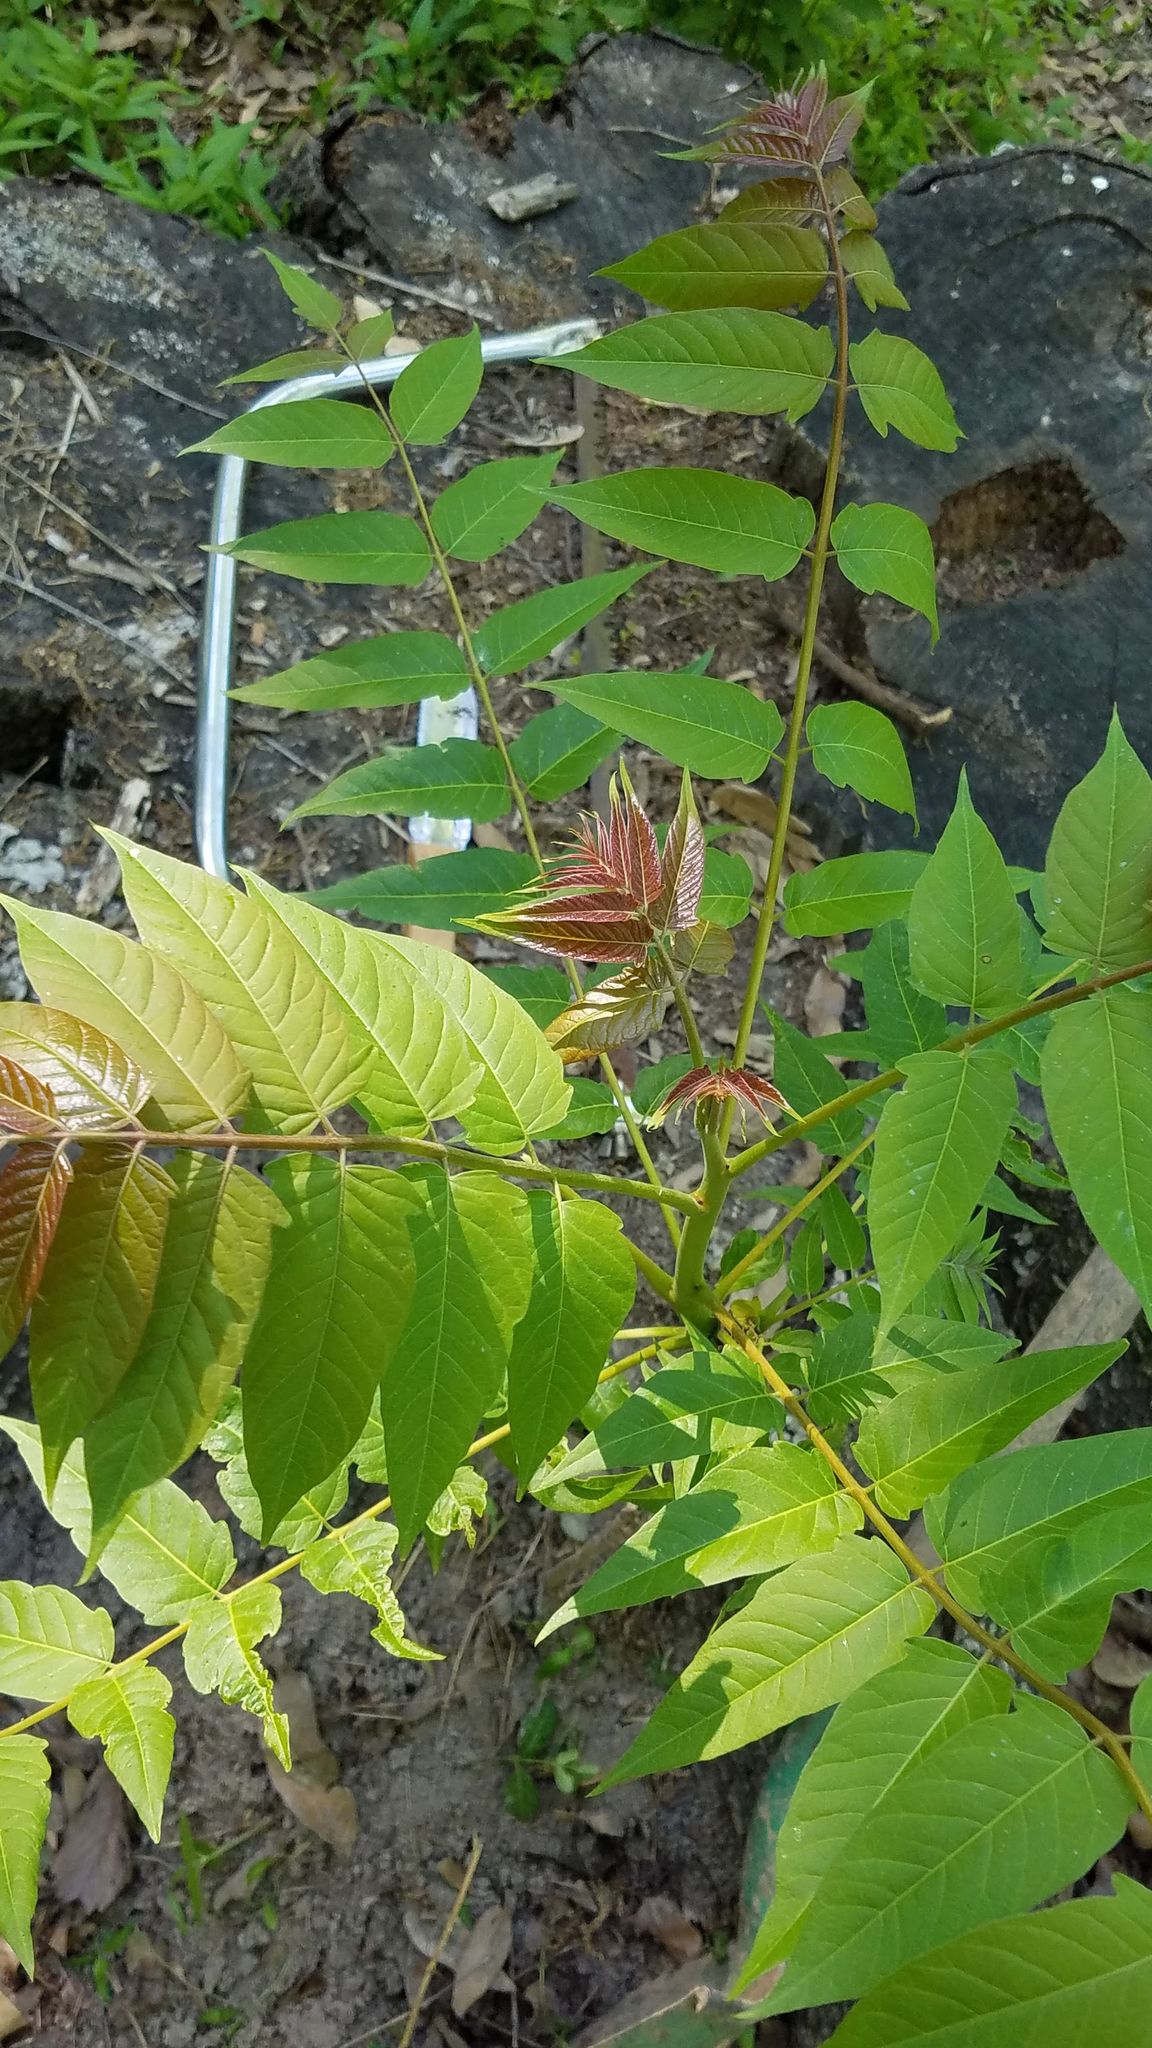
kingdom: Plantae
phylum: Tracheophyta
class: Magnoliopsida
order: Sapindales
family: Simaroubaceae
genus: Ailanthus
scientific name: Ailanthus altissima
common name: Tree-of-heaven
